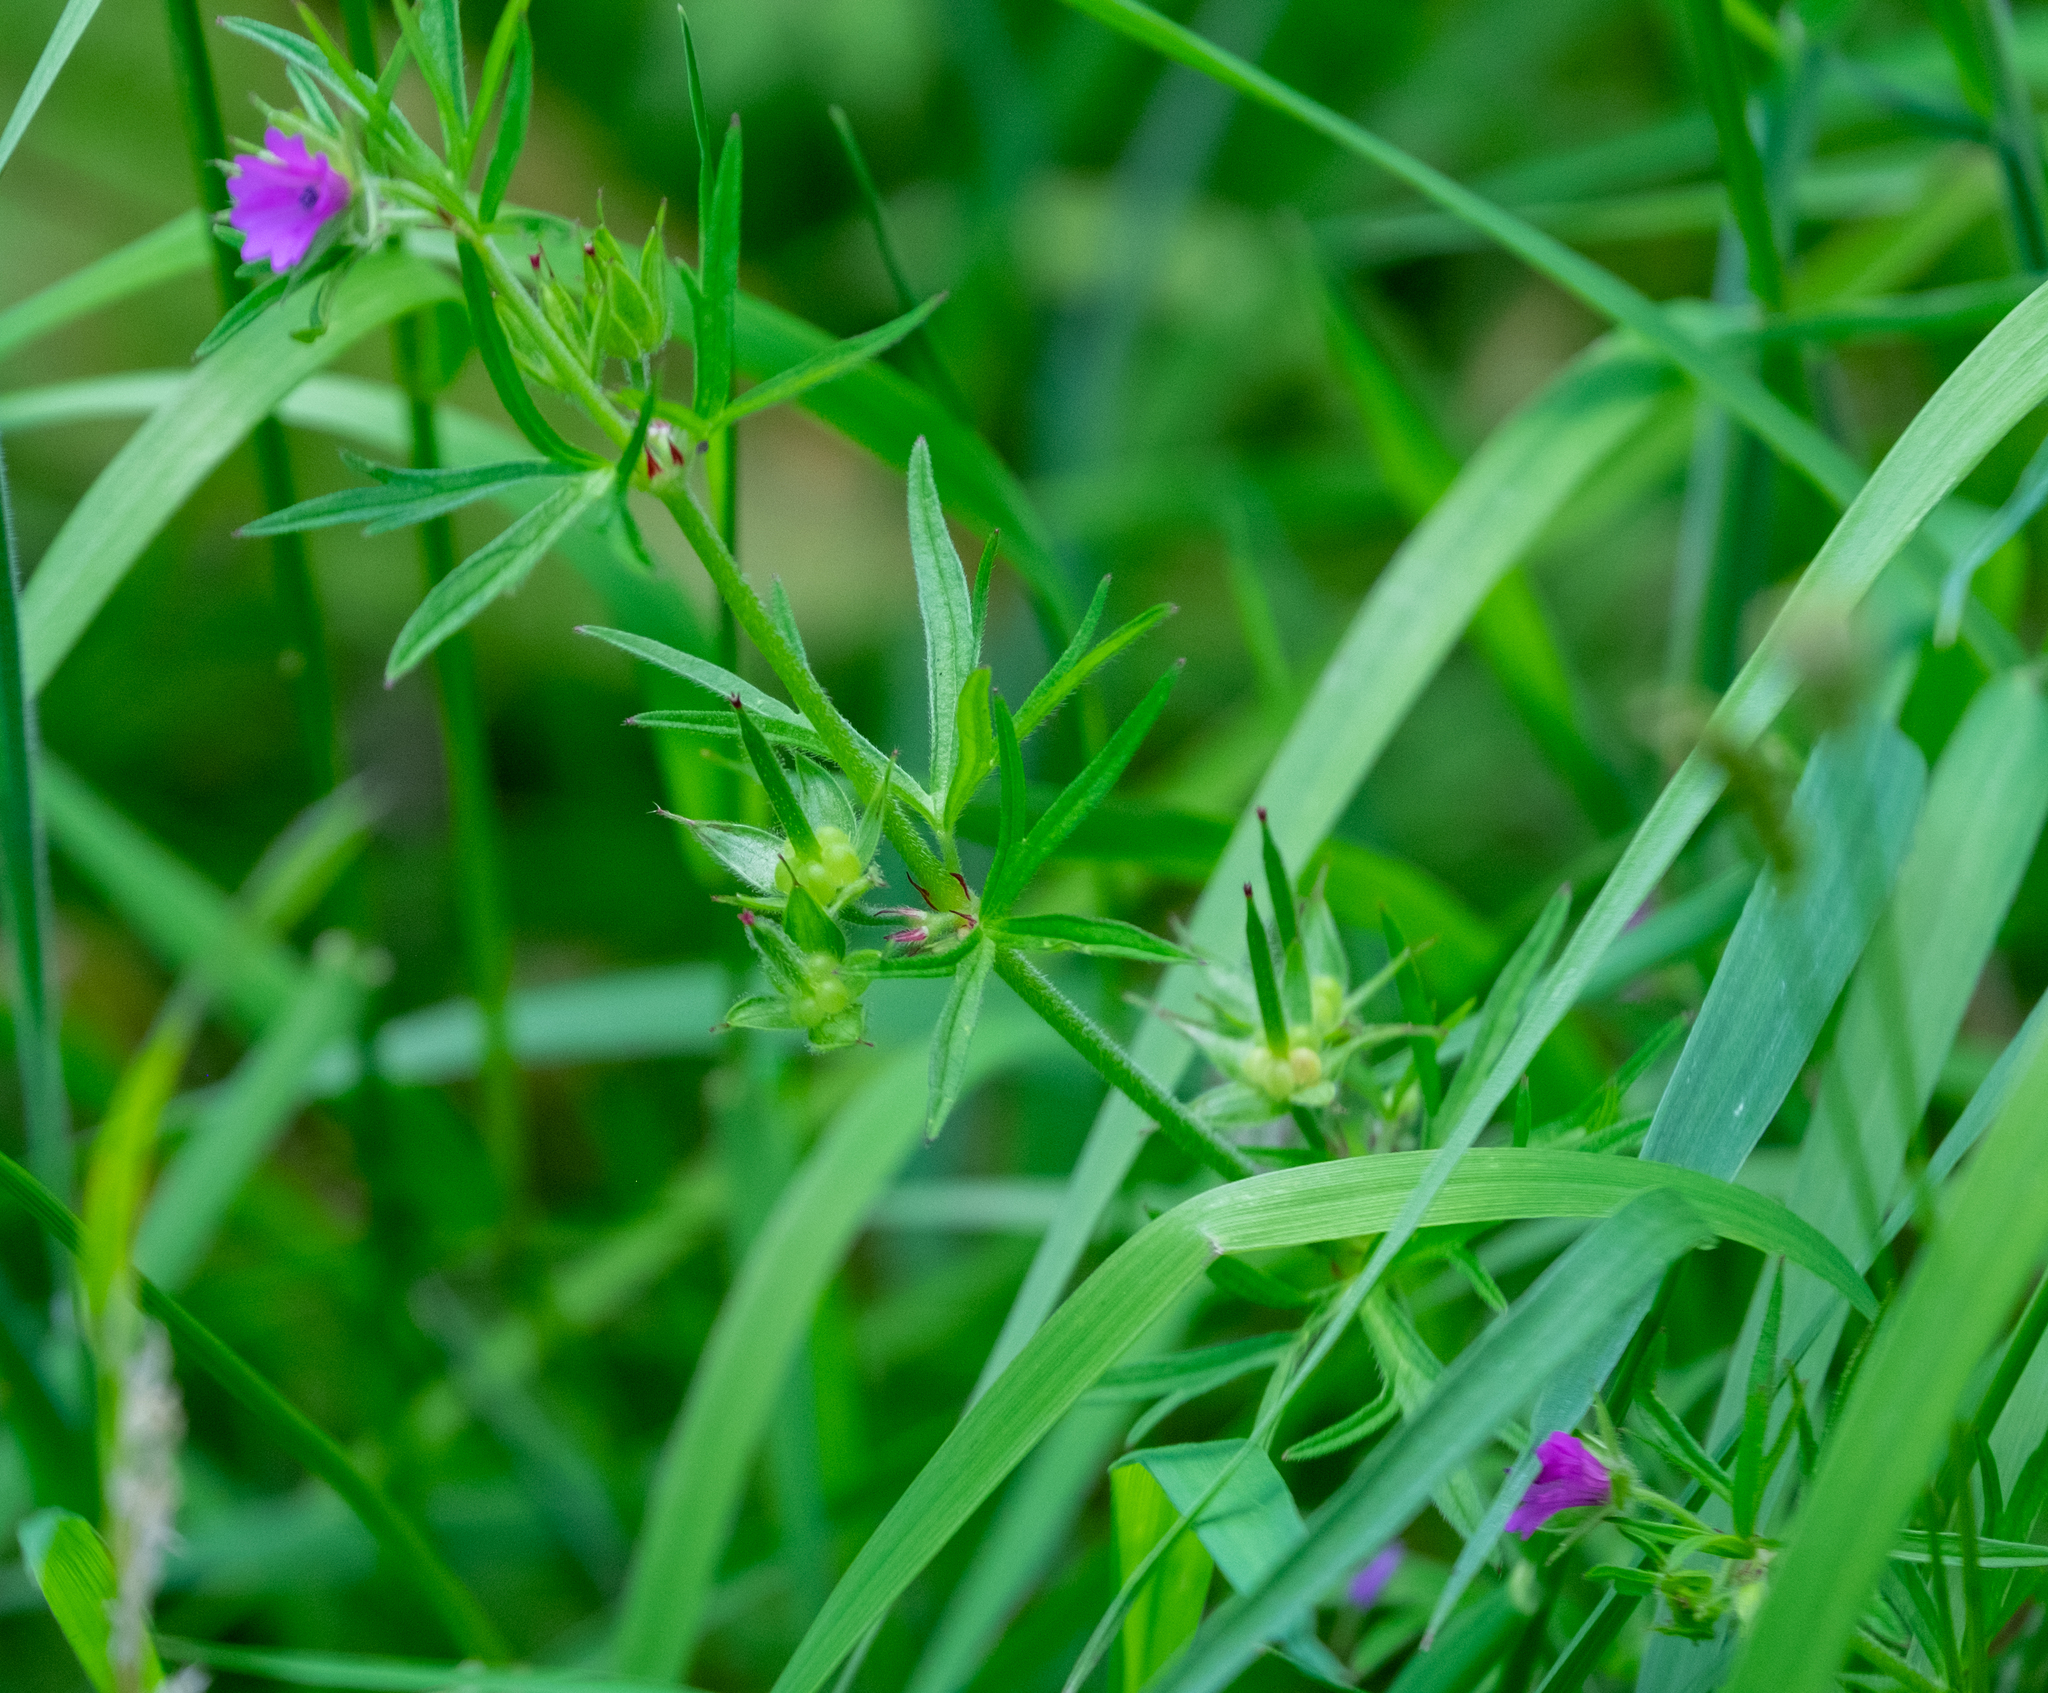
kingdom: Plantae
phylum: Tracheophyta
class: Magnoliopsida
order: Geraniales
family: Geraniaceae
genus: Geranium
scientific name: Geranium dissectum
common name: Cut-leaved crane's-bill
